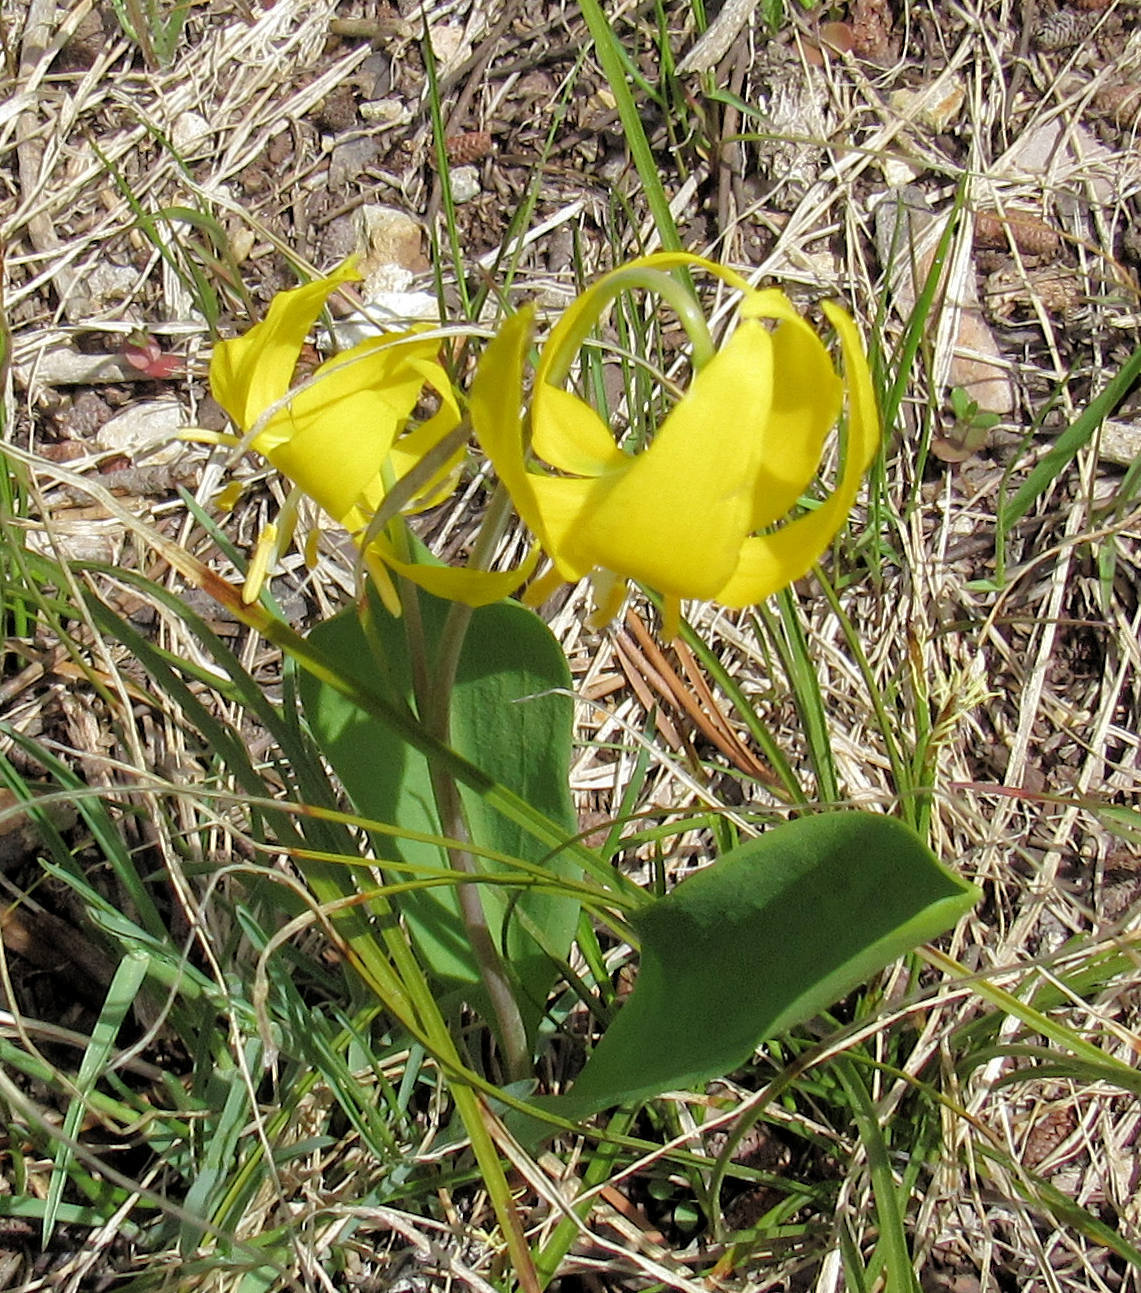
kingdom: Plantae
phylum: Tracheophyta
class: Liliopsida
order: Liliales
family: Liliaceae
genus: Erythronium
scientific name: Erythronium grandiflorum
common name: Avalanche-lily
